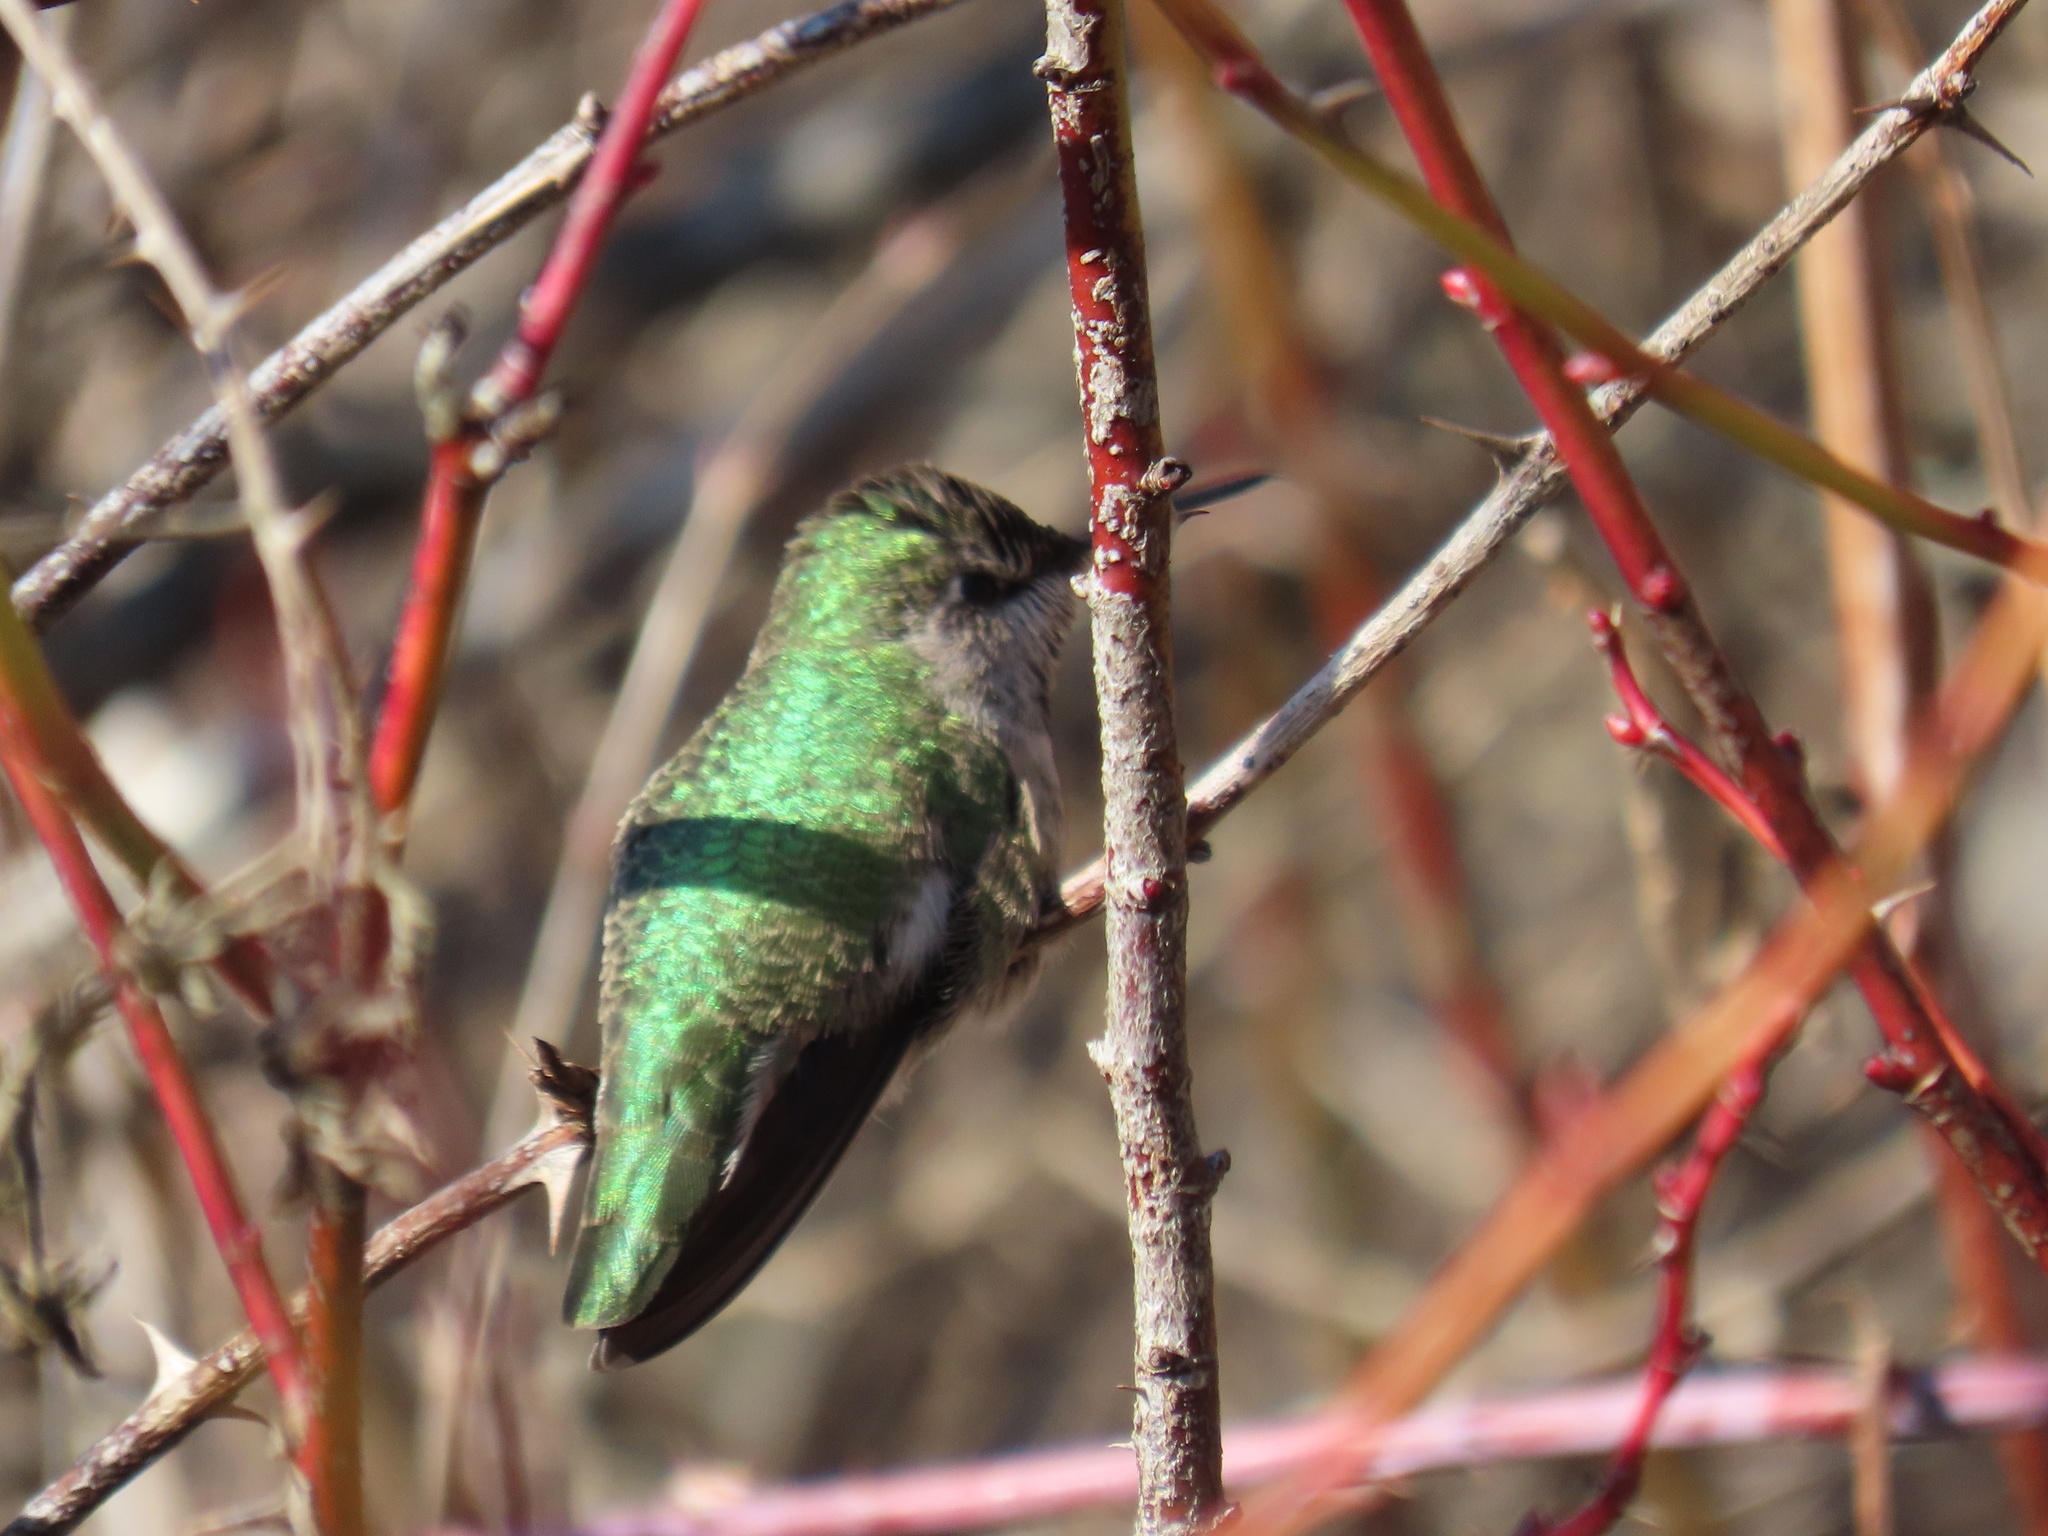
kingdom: Animalia
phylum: Chordata
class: Aves
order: Apodiformes
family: Trochilidae
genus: Calypte
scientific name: Calypte anna
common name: Anna's hummingbird
